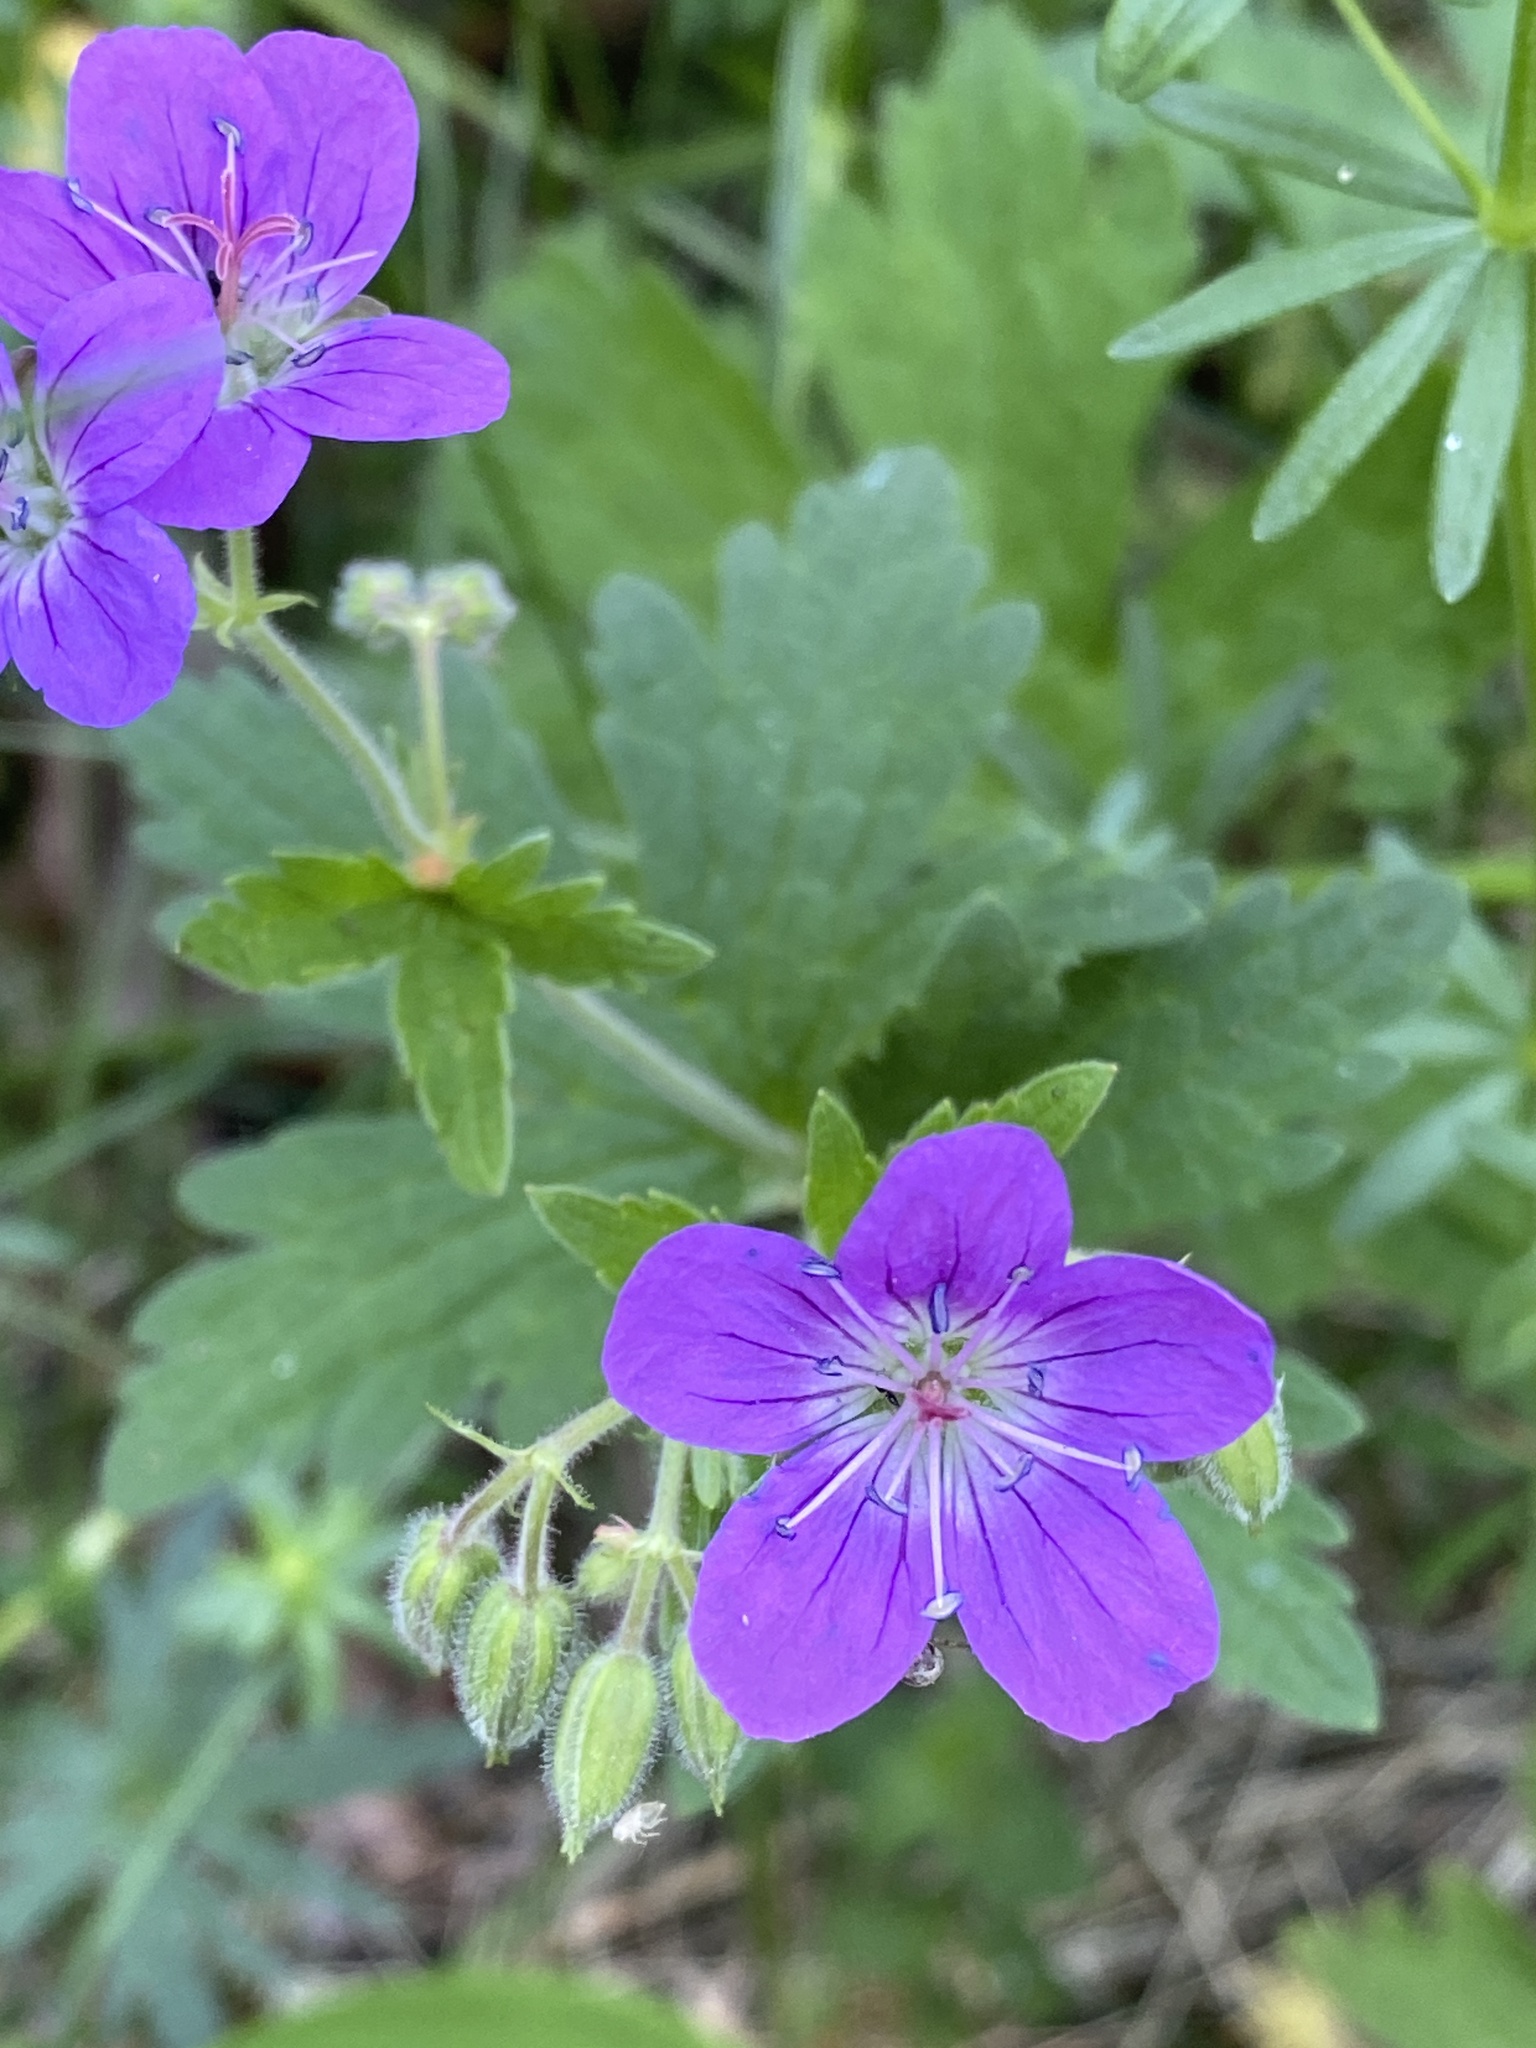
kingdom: Plantae
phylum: Tracheophyta
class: Magnoliopsida
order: Geraniales
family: Geraniaceae
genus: Geranium
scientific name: Geranium sylvaticum
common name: Wood crane's-bill
